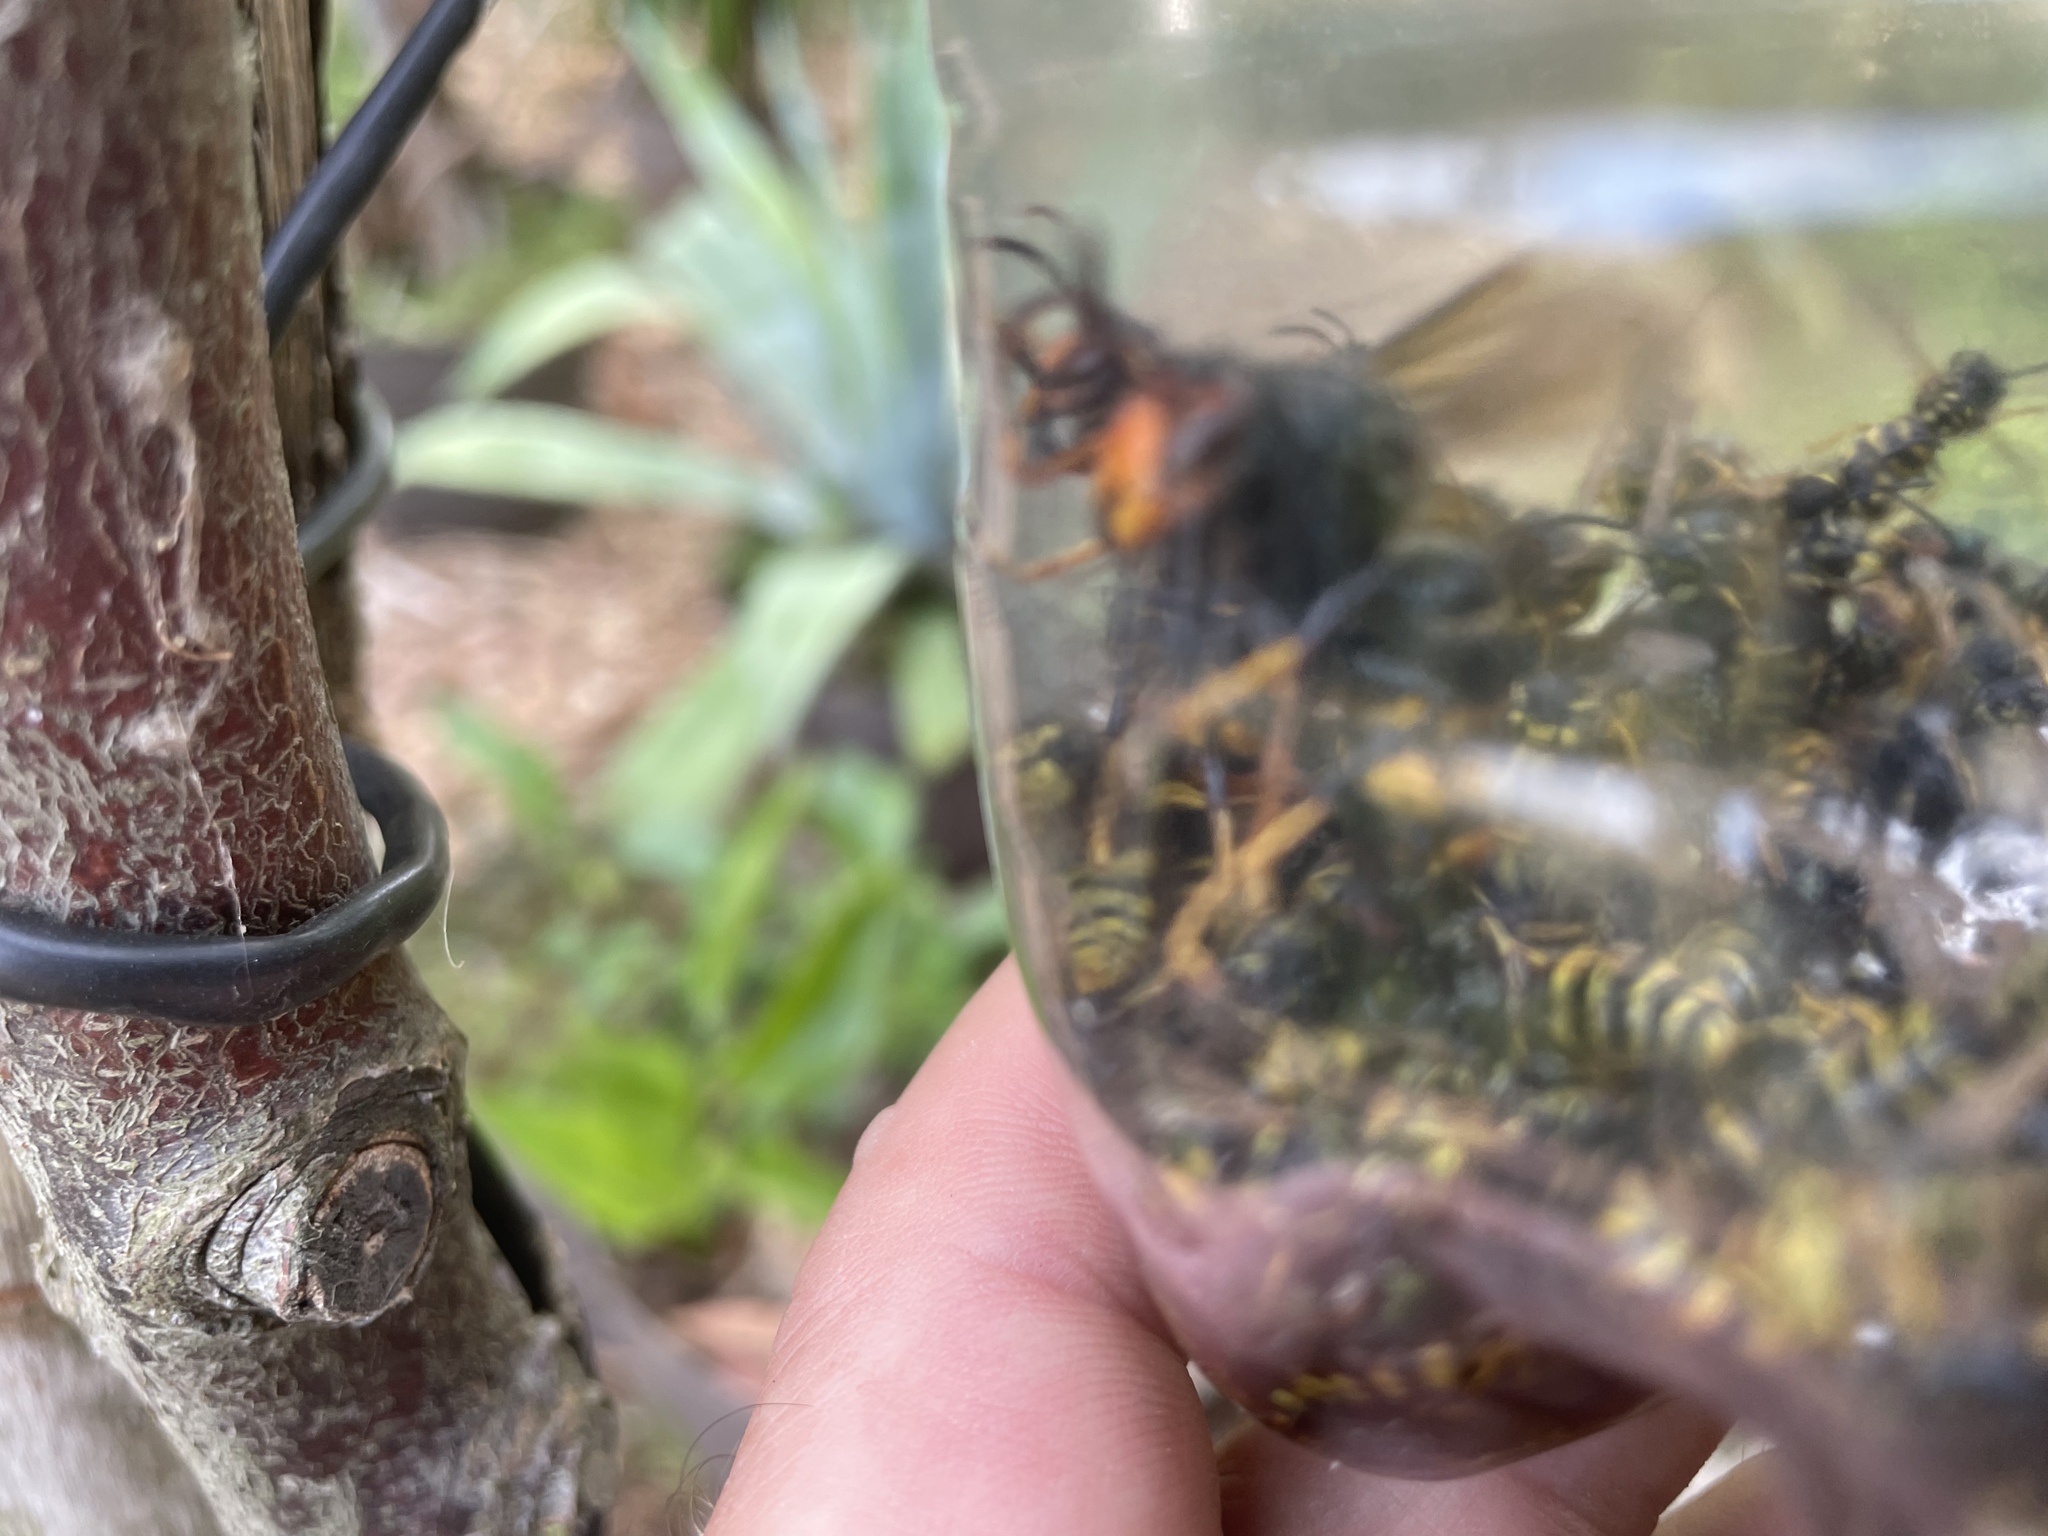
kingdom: Animalia
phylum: Arthropoda
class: Insecta
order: Hymenoptera
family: Vespidae
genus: Vespa
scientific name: Vespa velutina
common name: Asian hornet
